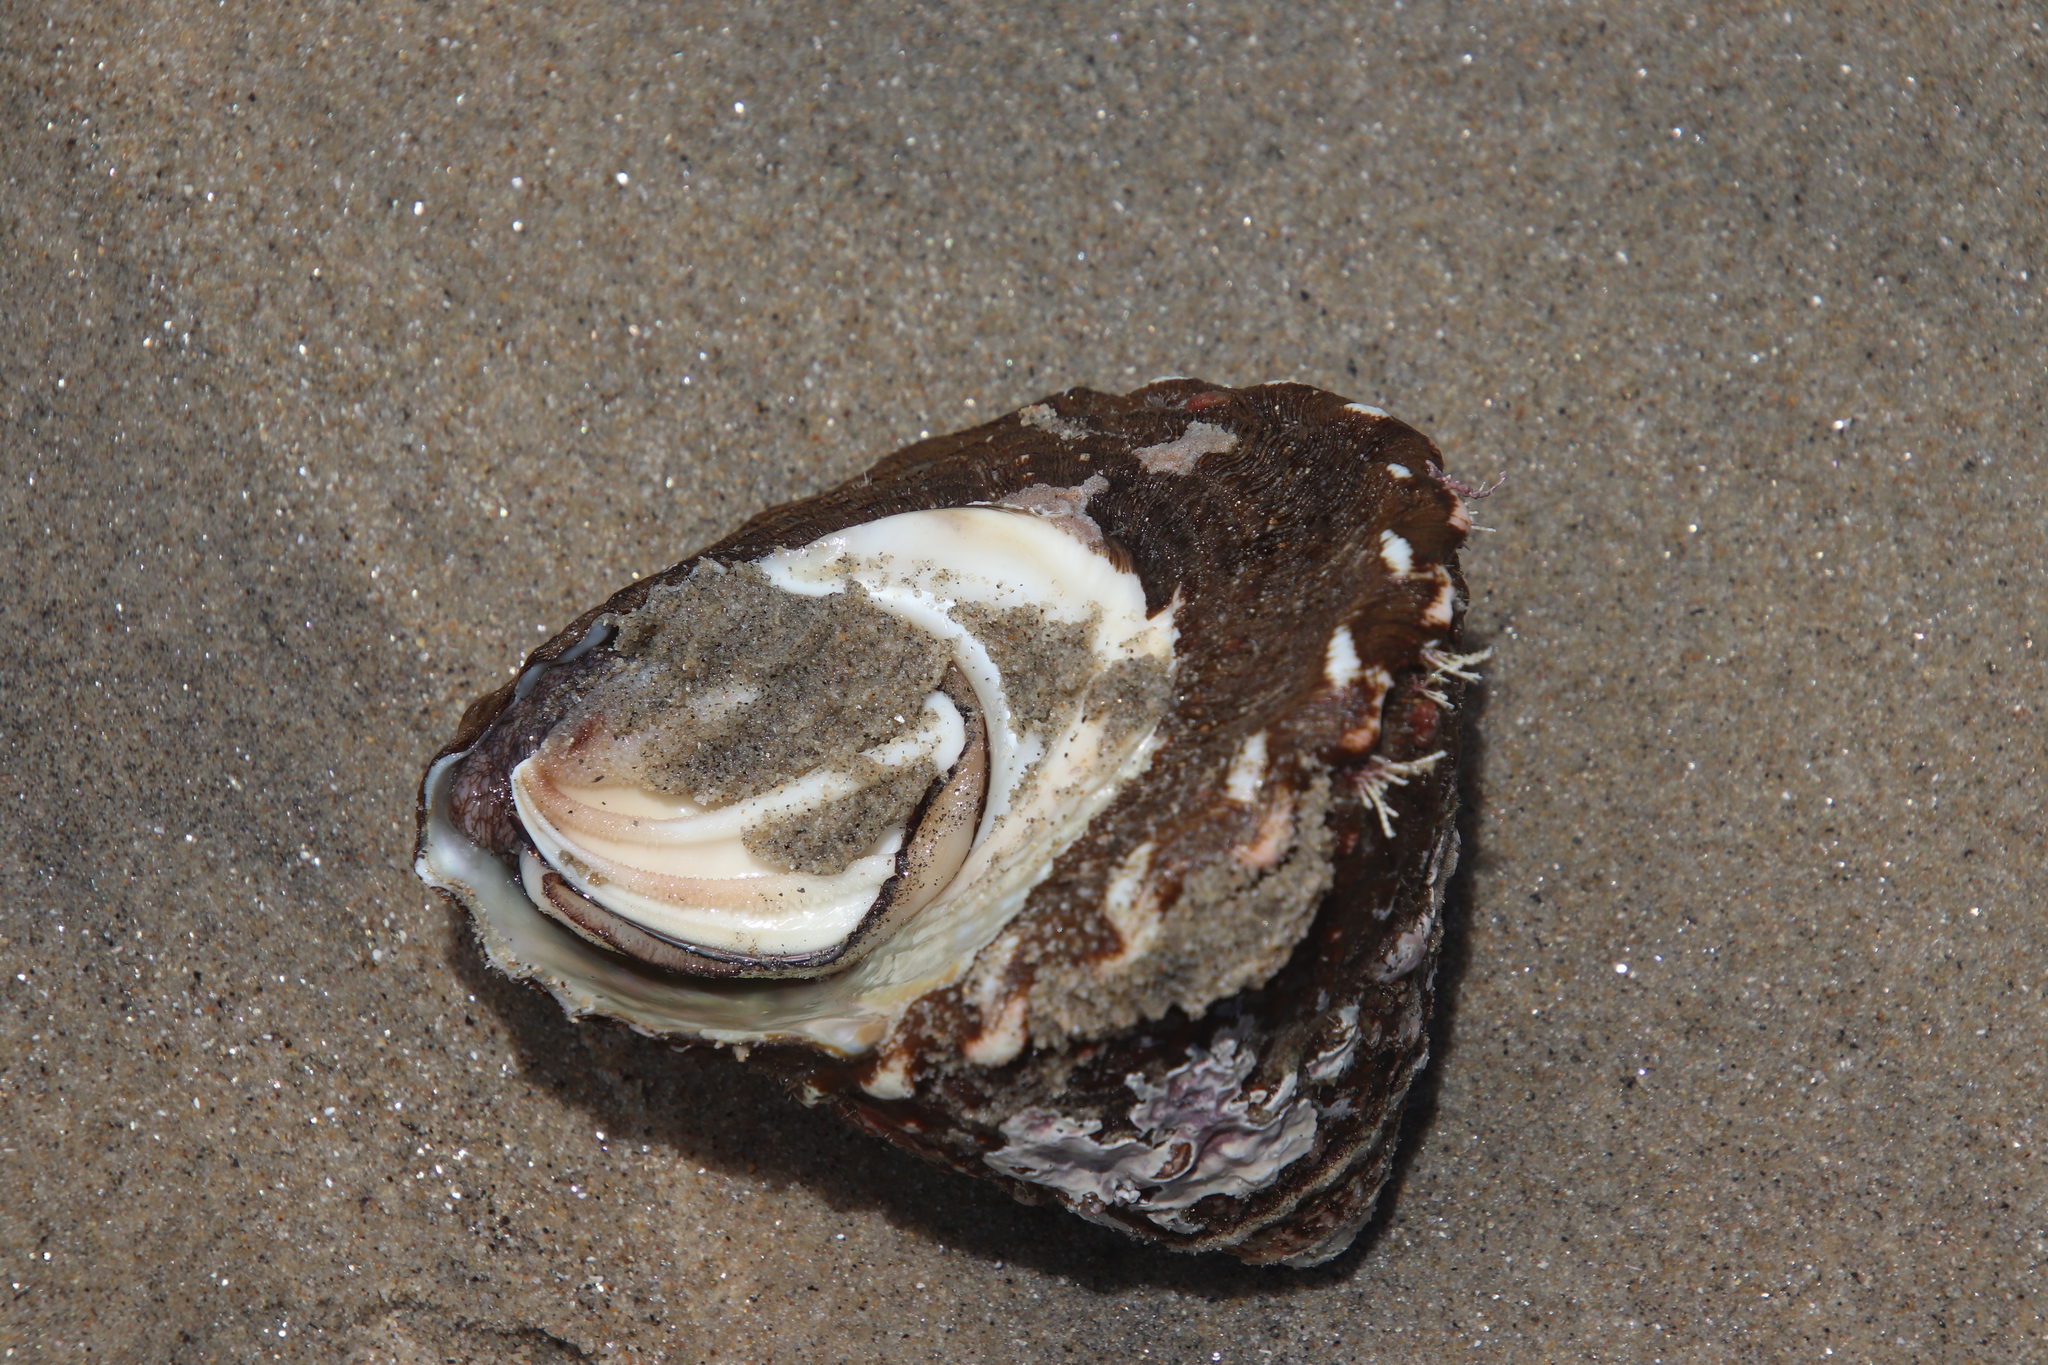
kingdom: Animalia
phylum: Mollusca
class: Gastropoda
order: Trochida
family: Turbinidae
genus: Megastraea
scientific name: Megastraea undosa
